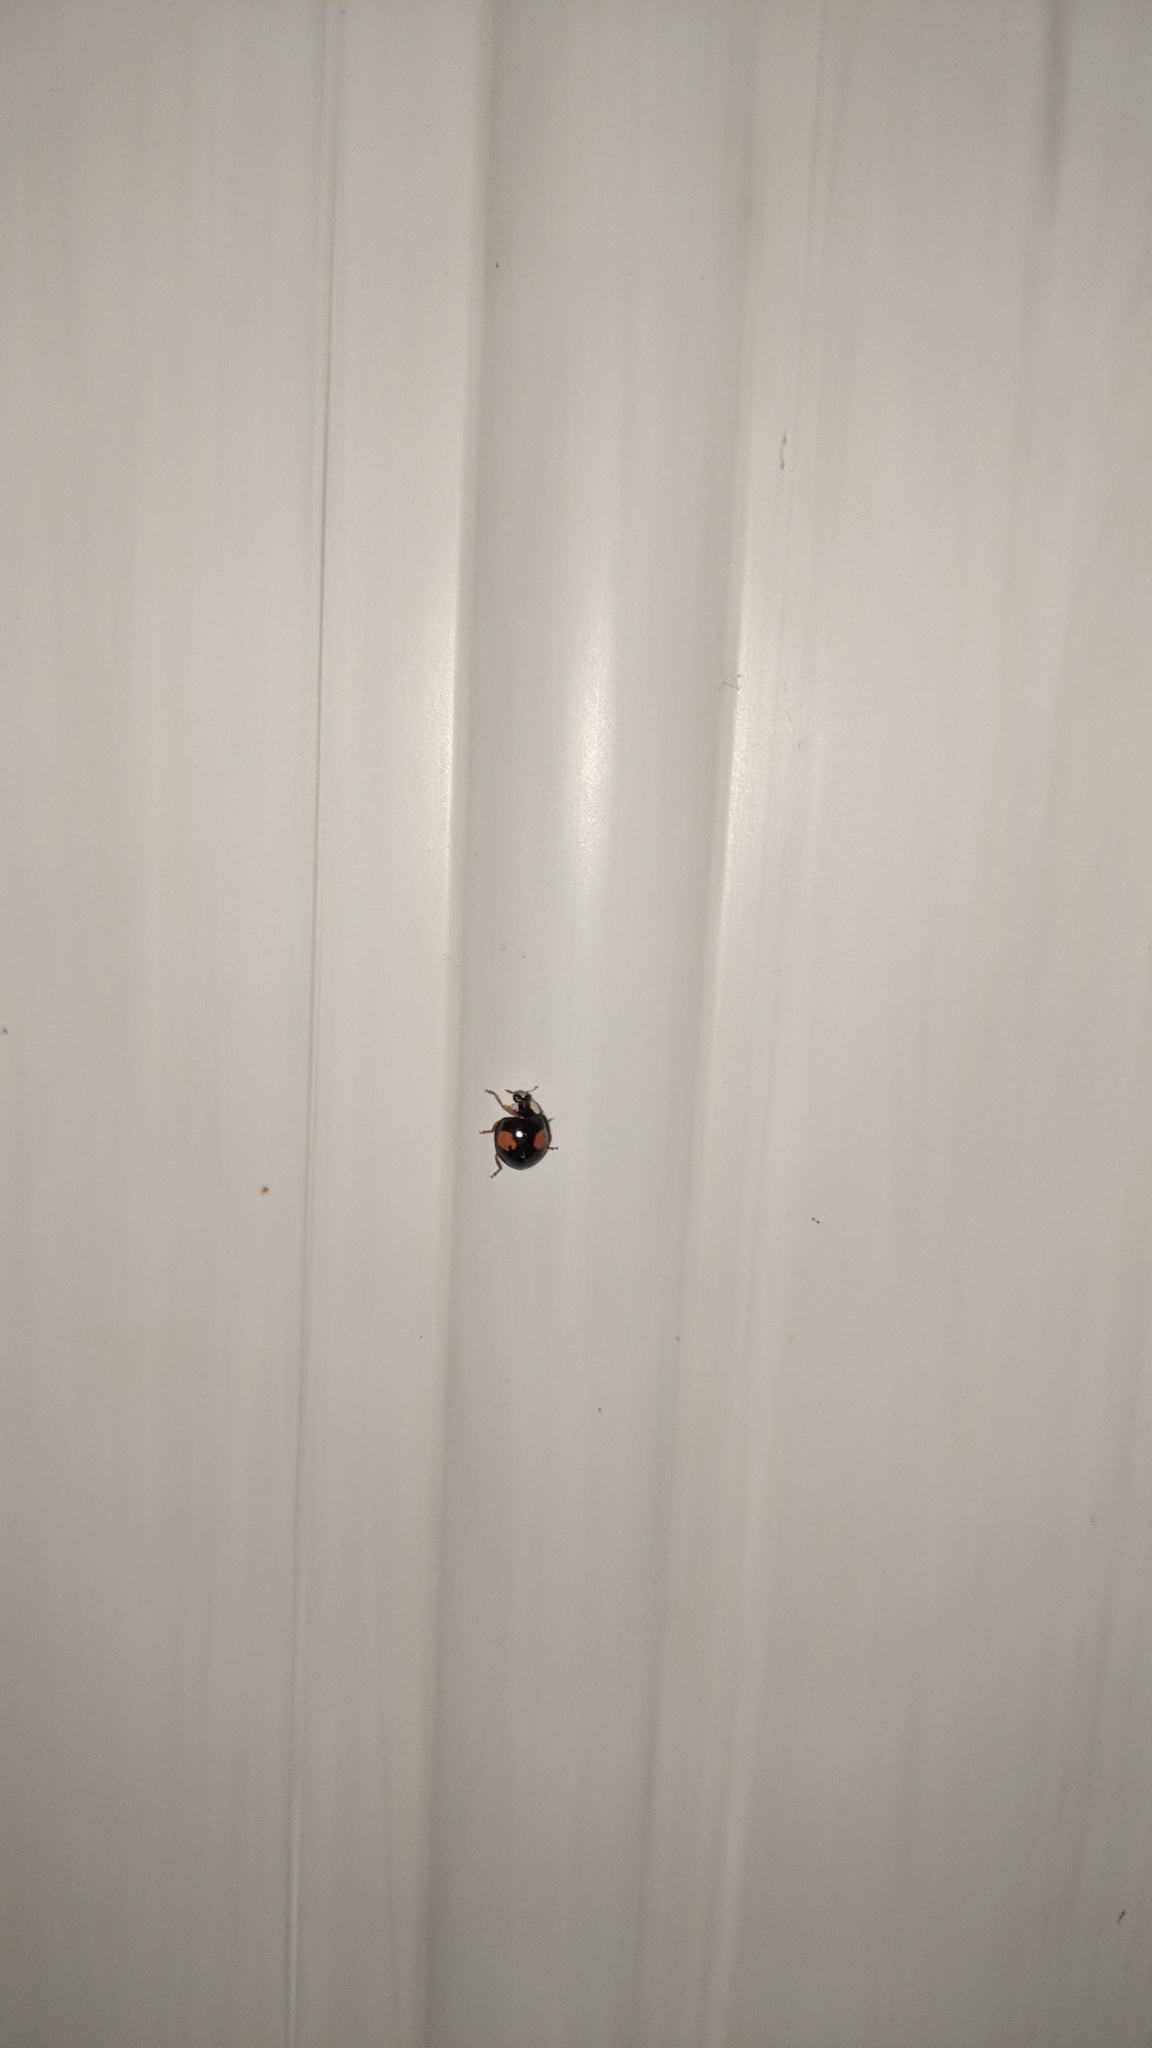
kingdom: Animalia
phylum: Arthropoda
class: Insecta
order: Coleoptera
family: Coccinellidae
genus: Harmonia
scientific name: Harmonia axyridis
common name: Harlequin ladybird
